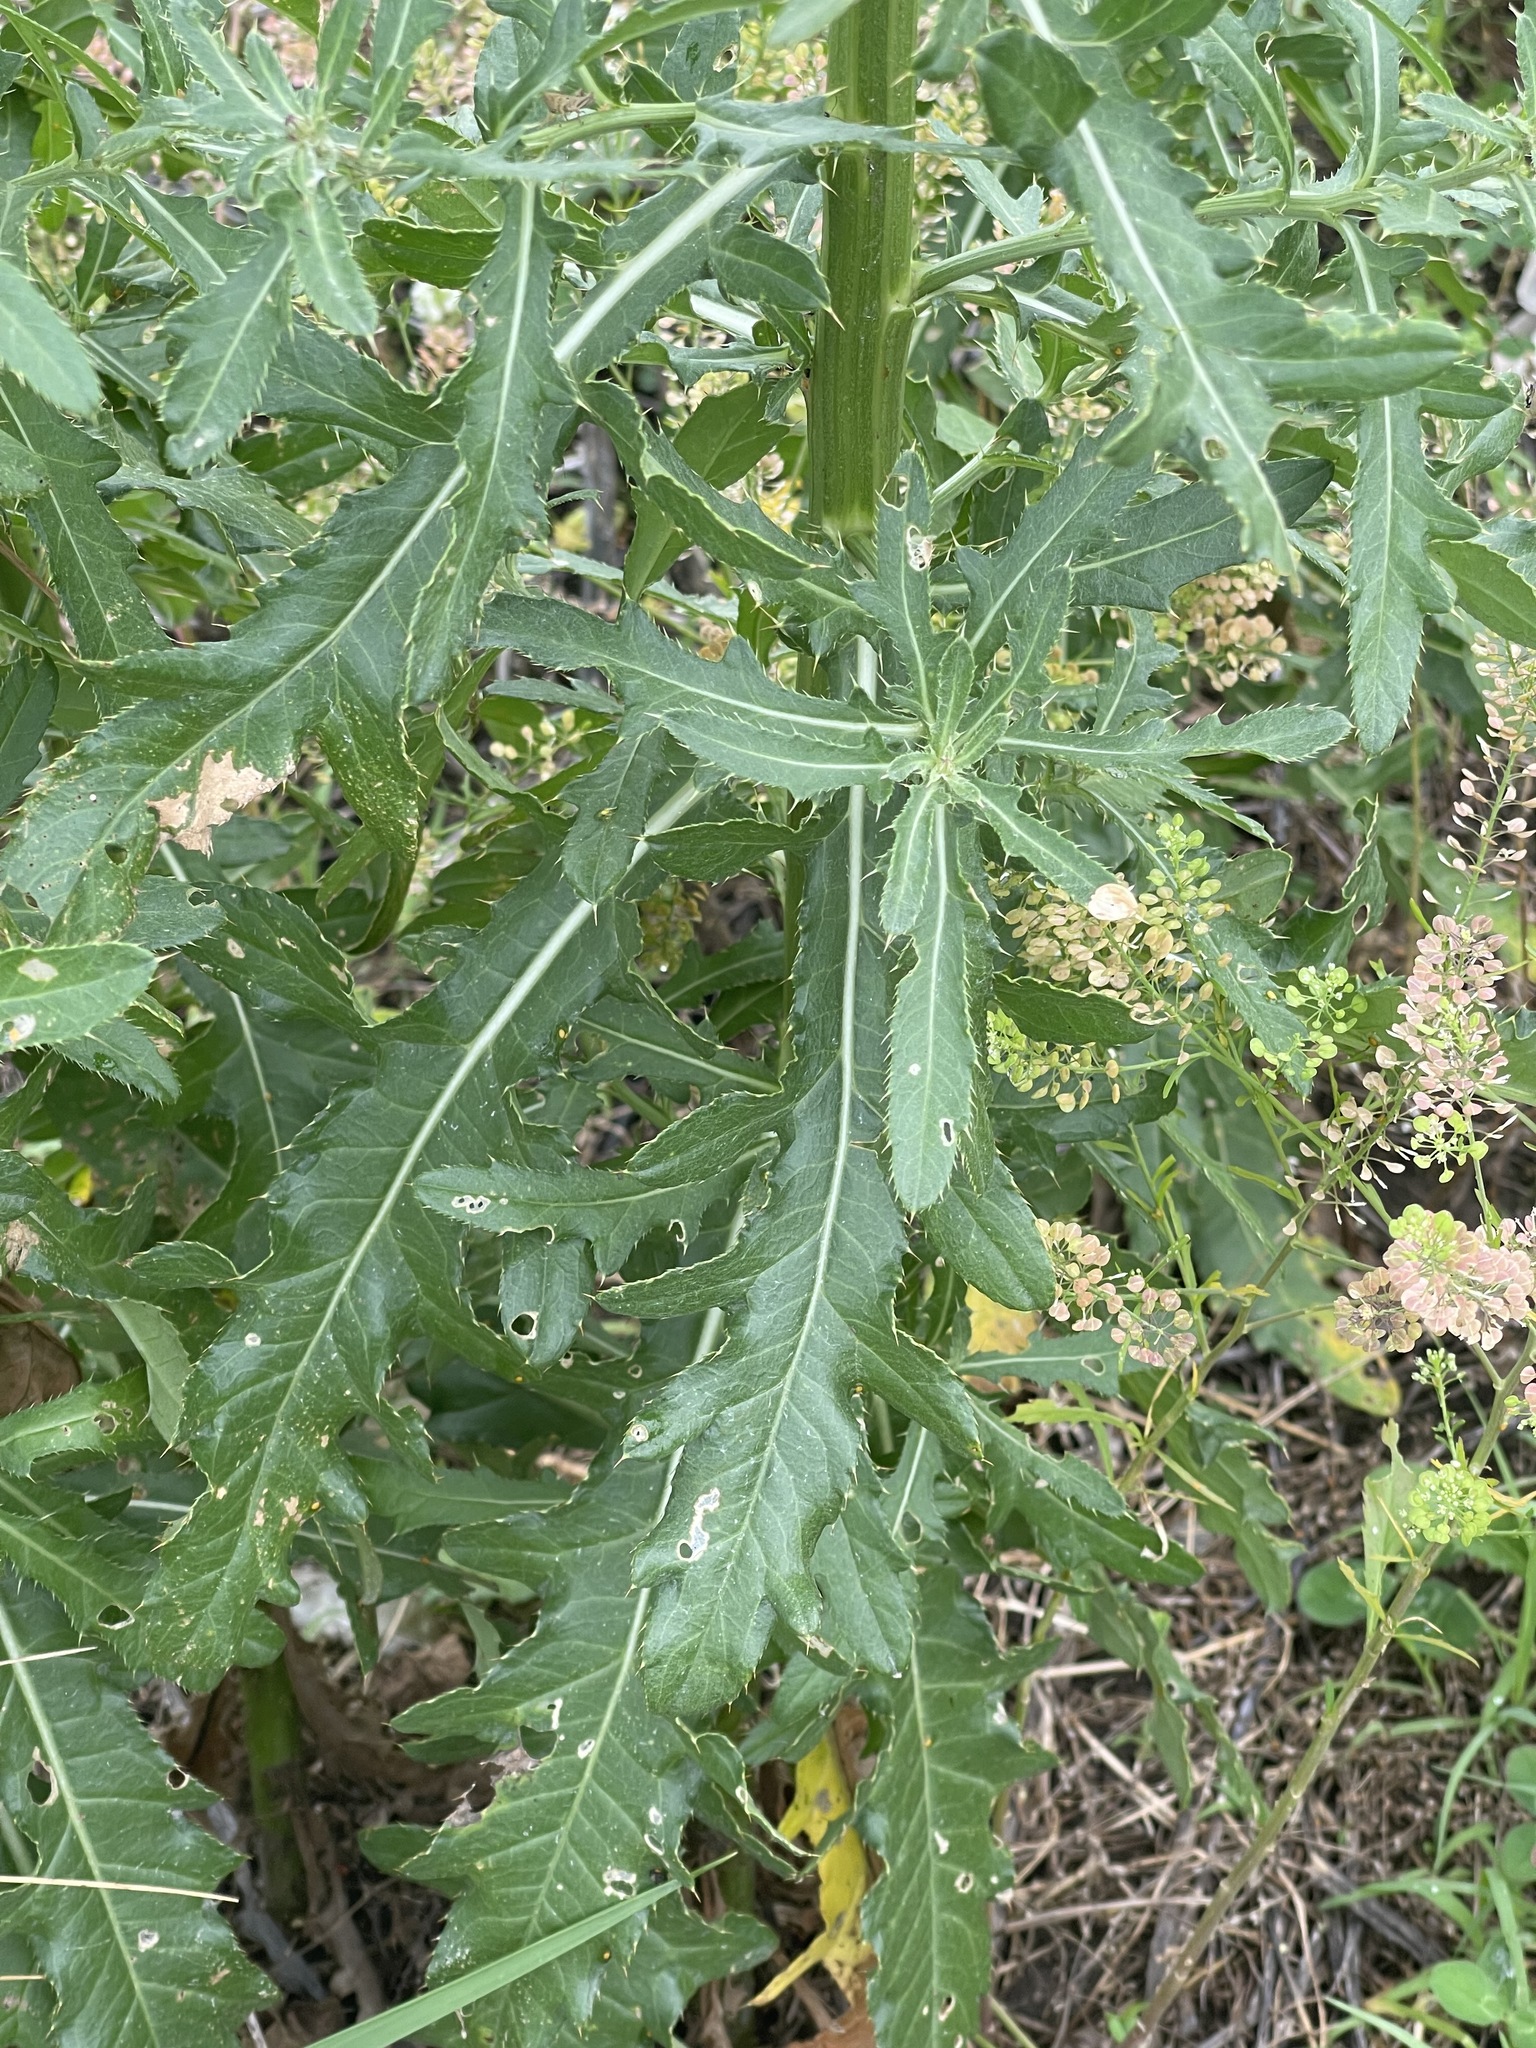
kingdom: Plantae
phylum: Tracheophyta
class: Magnoliopsida
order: Asterales
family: Asteraceae
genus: Cirsium
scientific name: Cirsium arvense
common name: Creeping thistle
